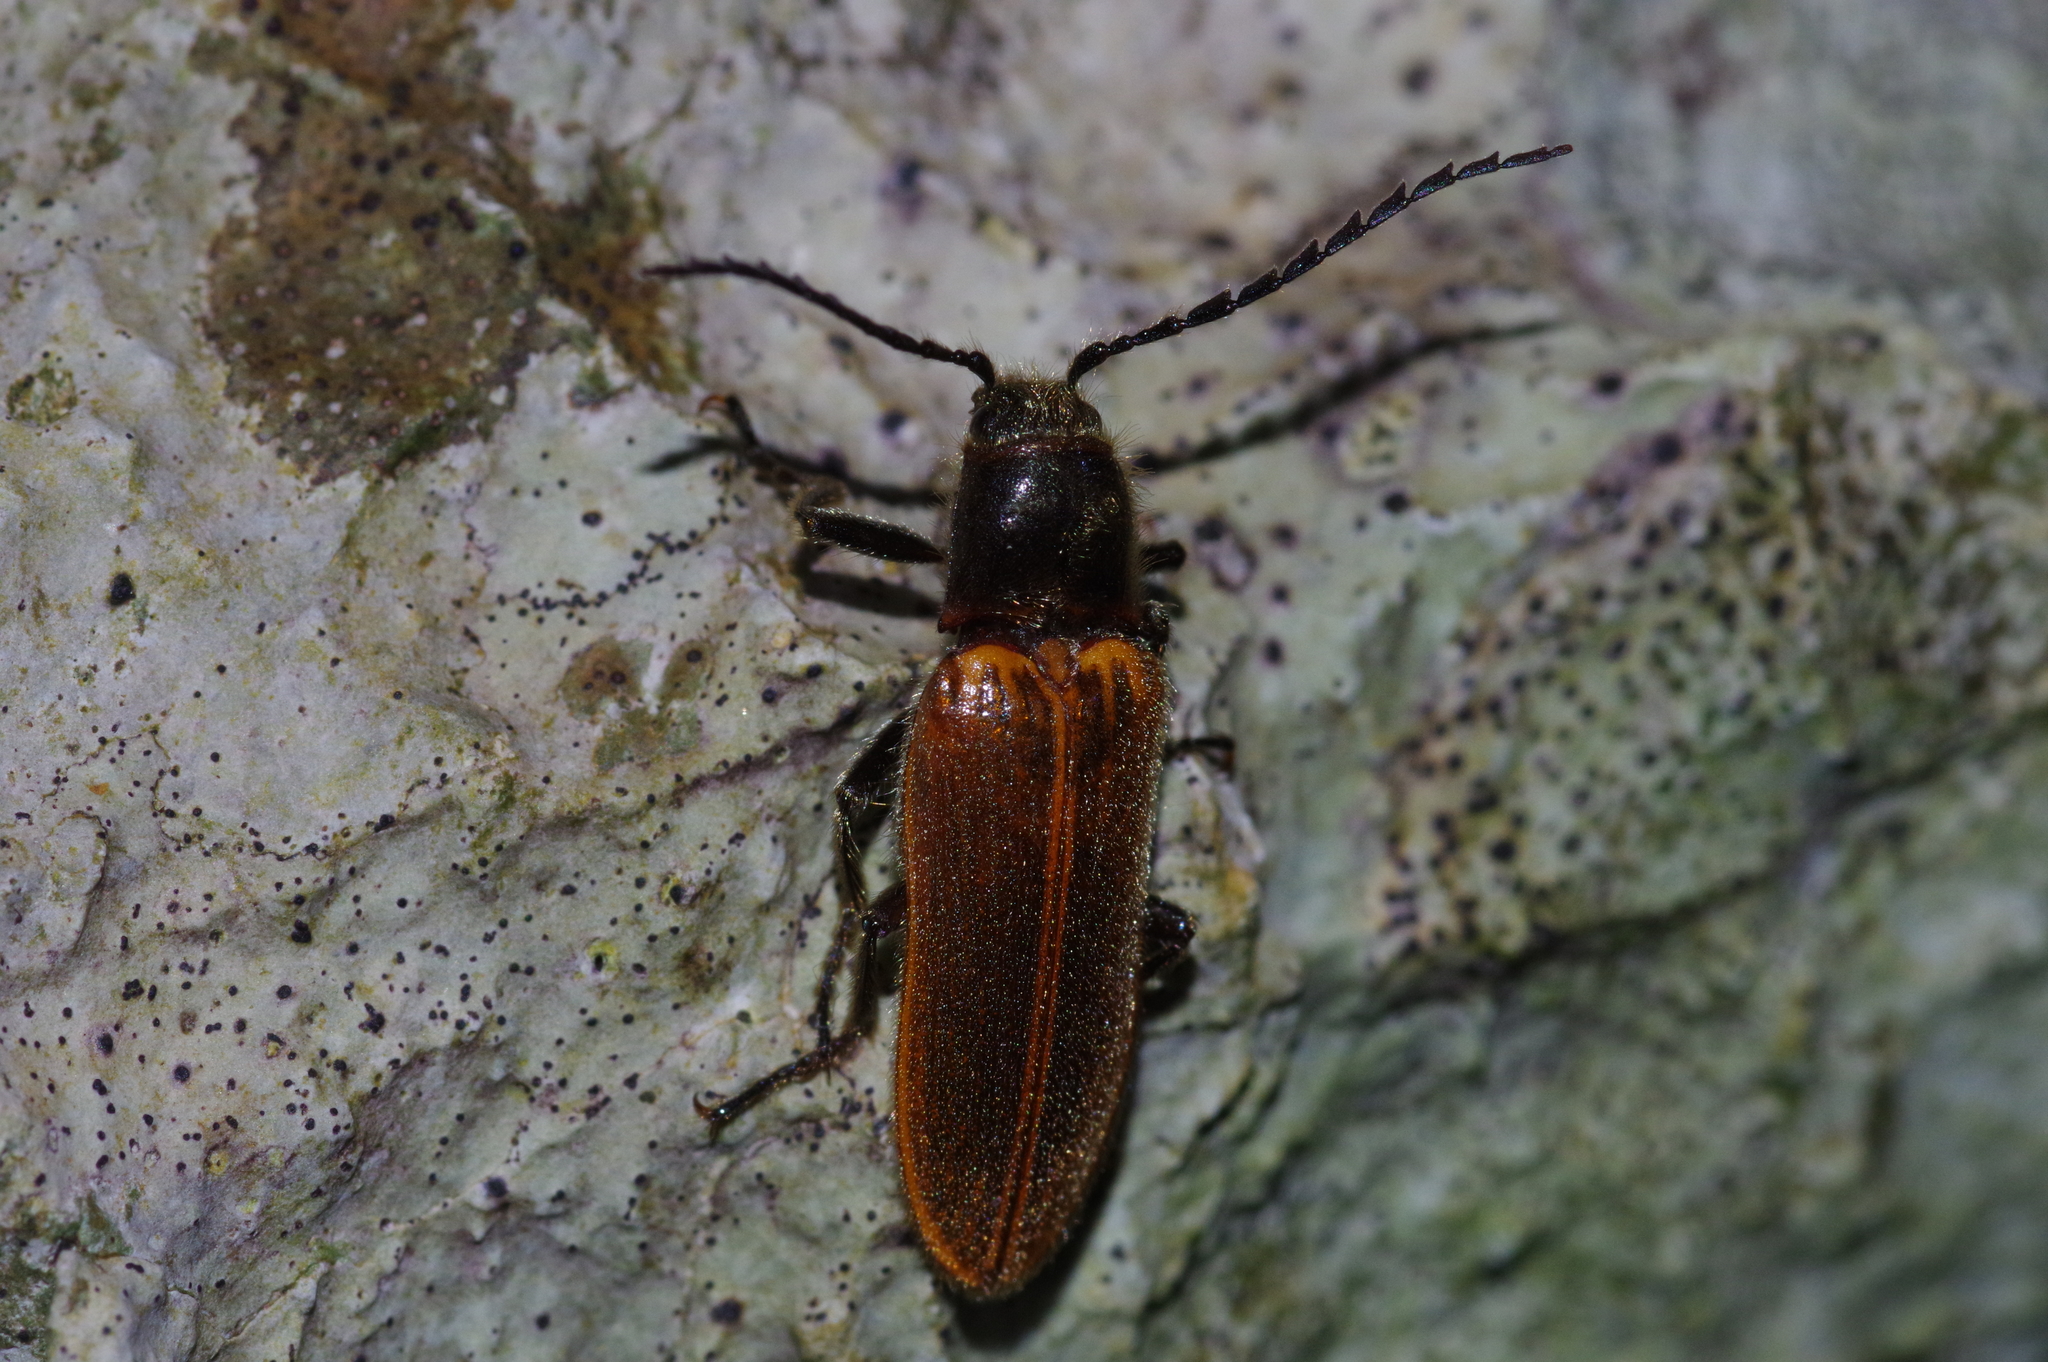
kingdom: Animalia
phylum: Arthropoda
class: Insecta
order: Coleoptera
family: Elateridae
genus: Hemiops
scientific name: Hemiops
